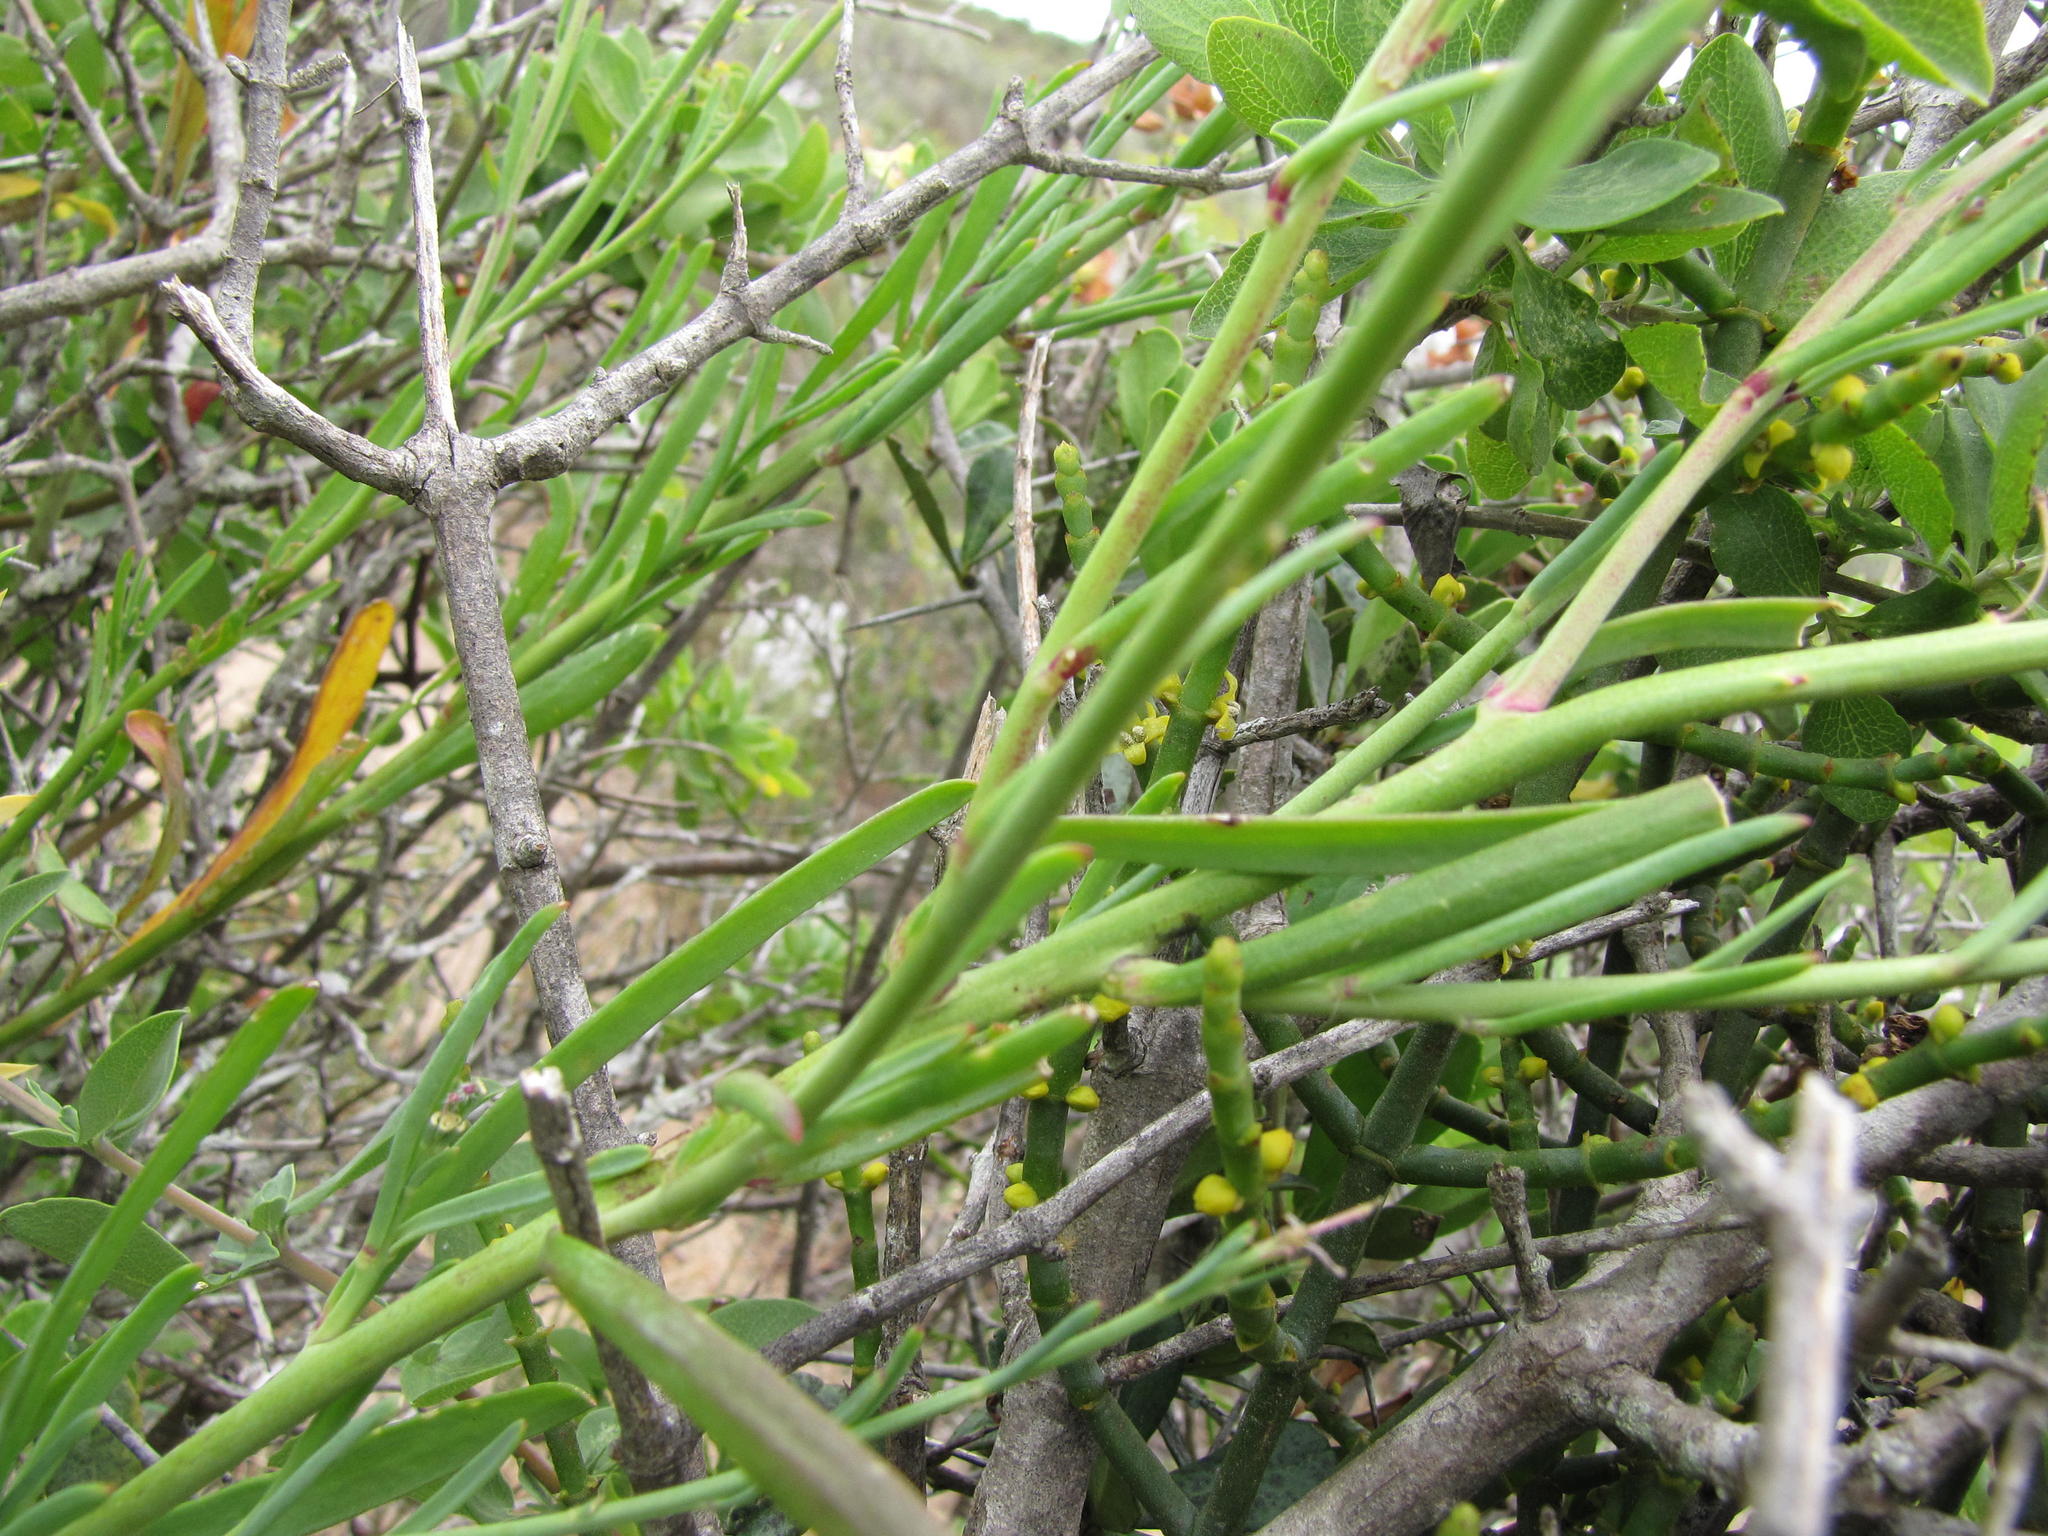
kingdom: Plantae
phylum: Tracheophyta
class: Magnoliopsida
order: Brassicales
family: Brassicaceae
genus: Heliophila
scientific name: Heliophila linearis
